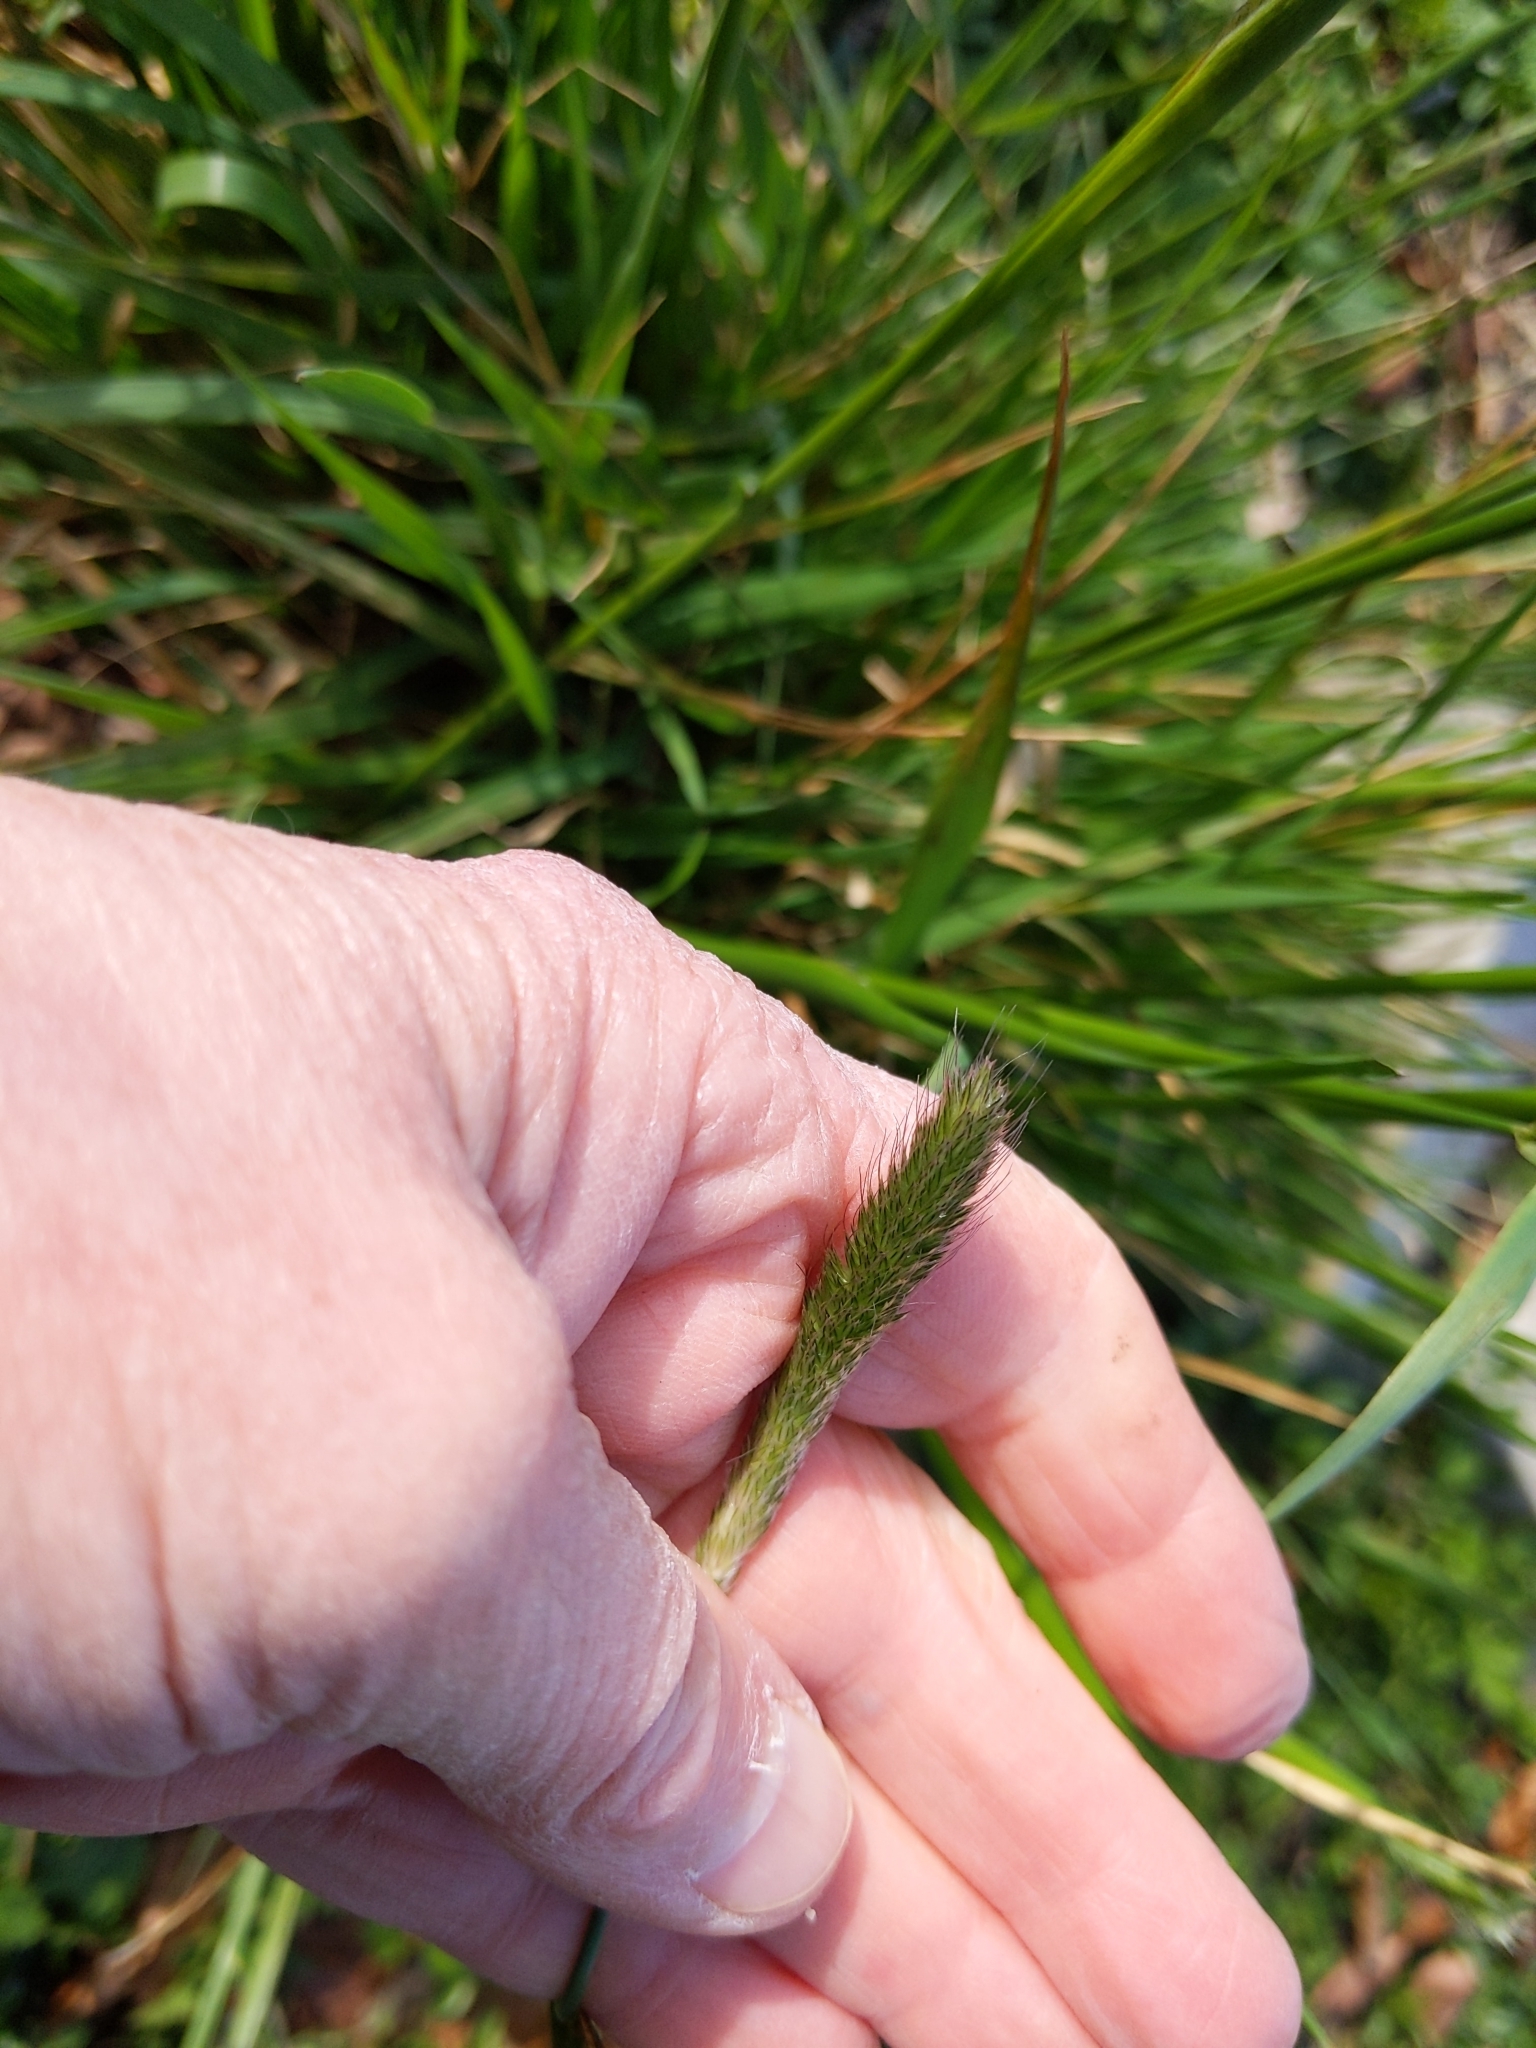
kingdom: Plantae
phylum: Tracheophyta
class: Liliopsida
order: Poales
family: Poaceae
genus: Alopecurus
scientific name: Alopecurus pratensis
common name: Meadow foxtail
